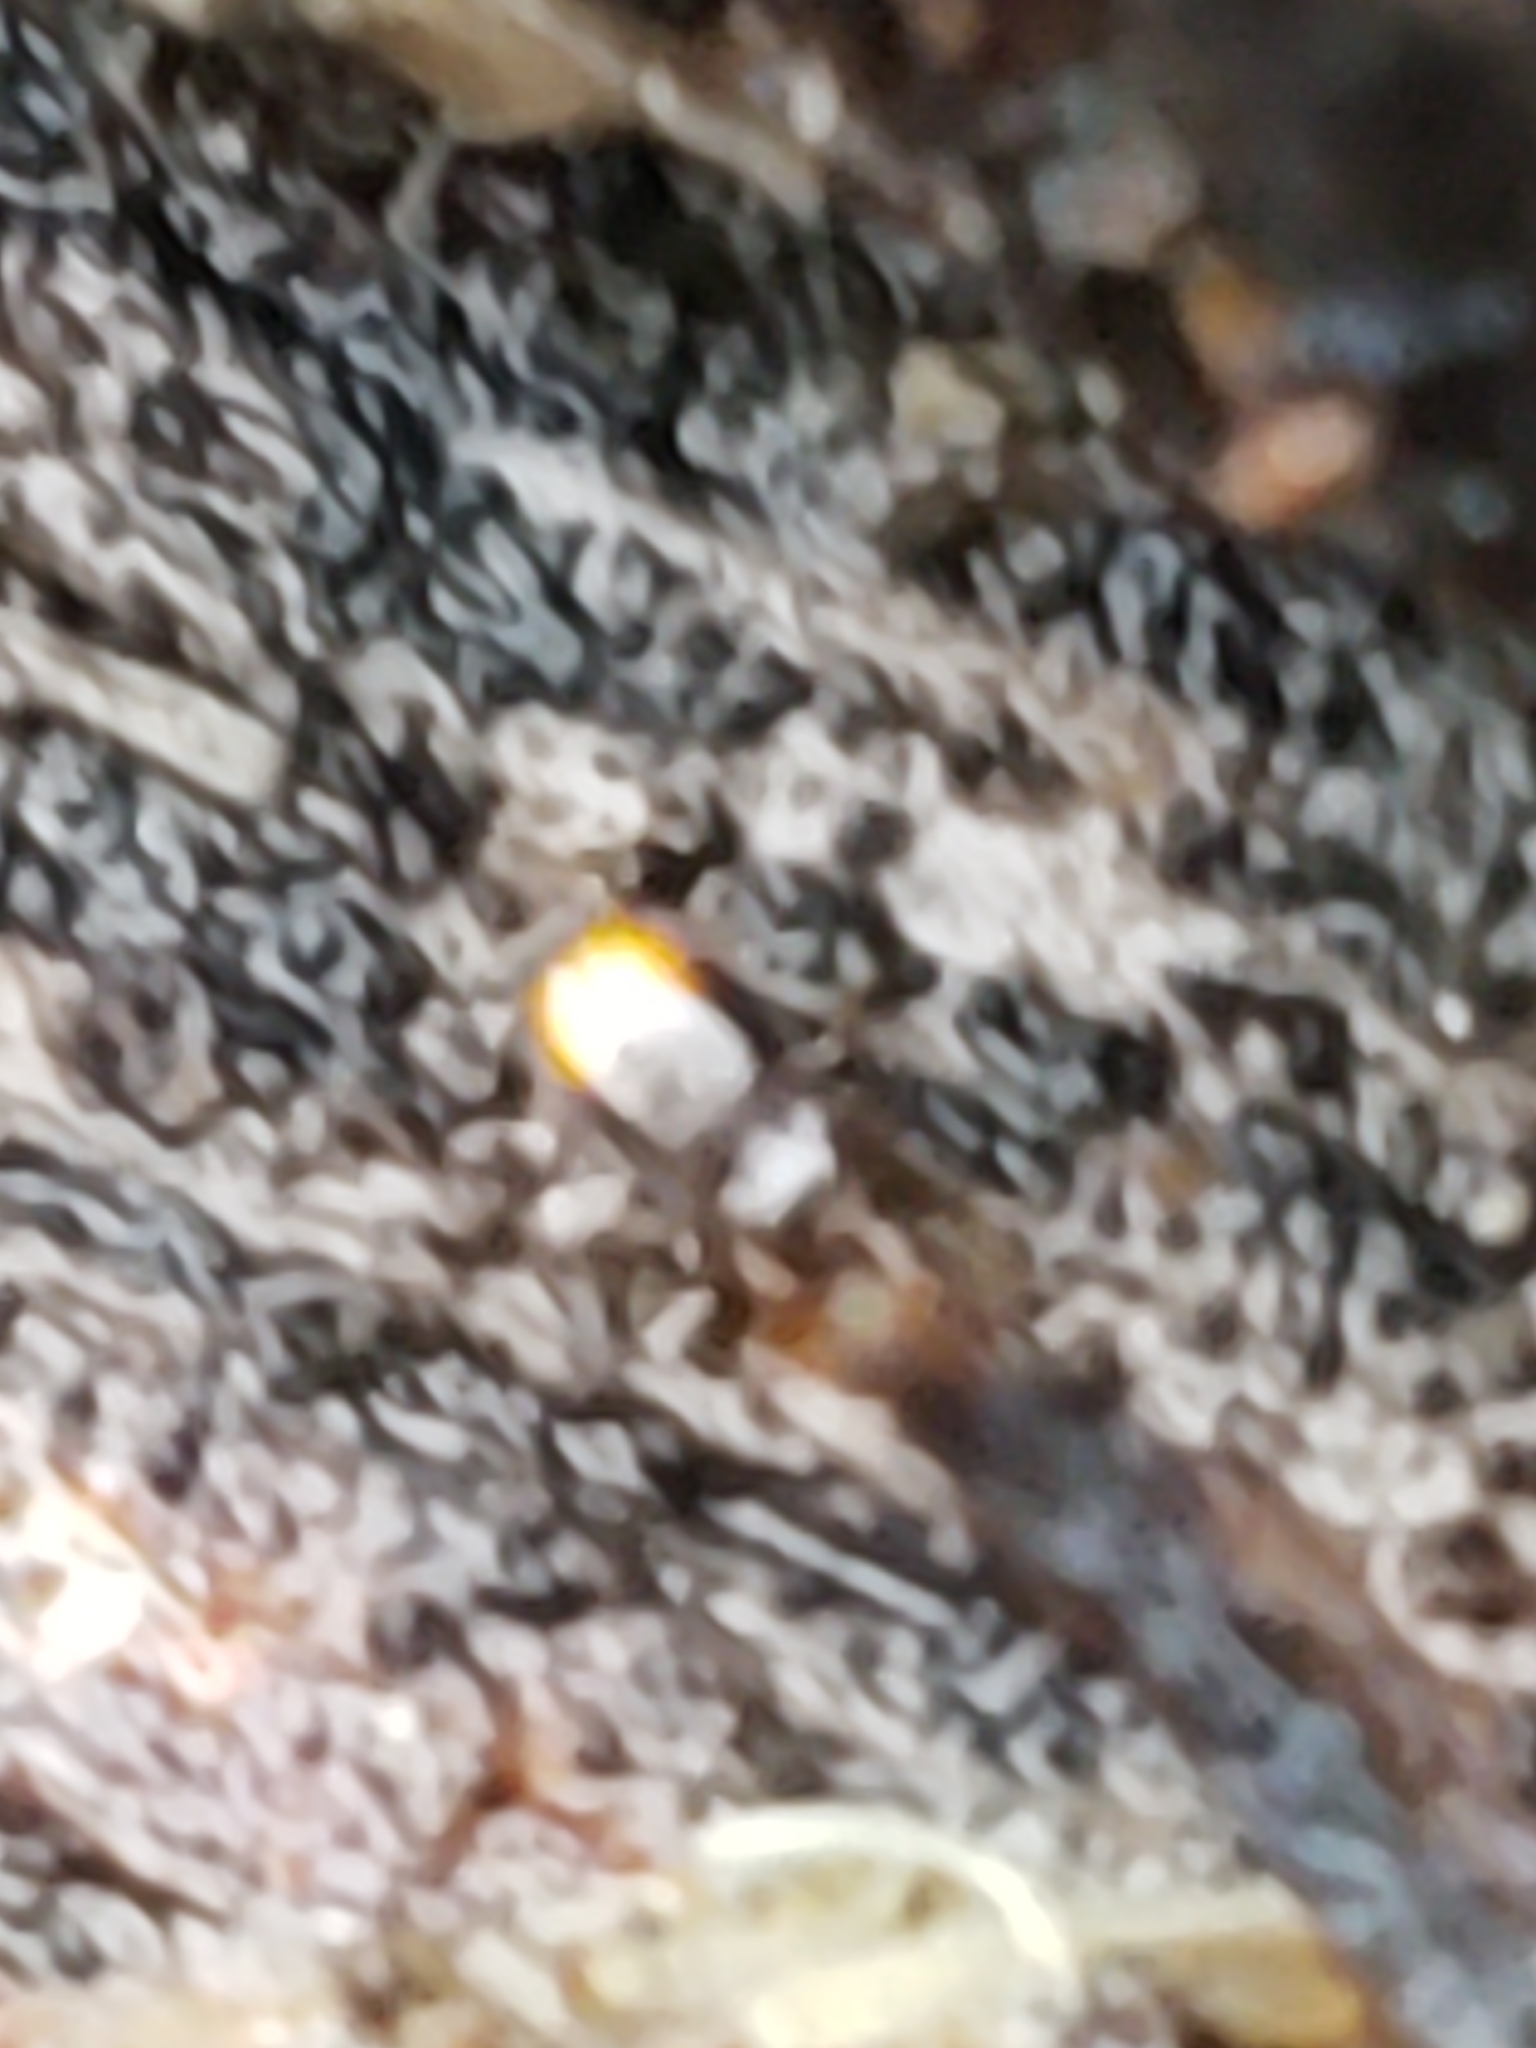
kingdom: Animalia
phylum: Arthropoda
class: Insecta
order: Coleoptera
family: Carabidae
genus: Mioptachys
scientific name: Mioptachys flavicauda
